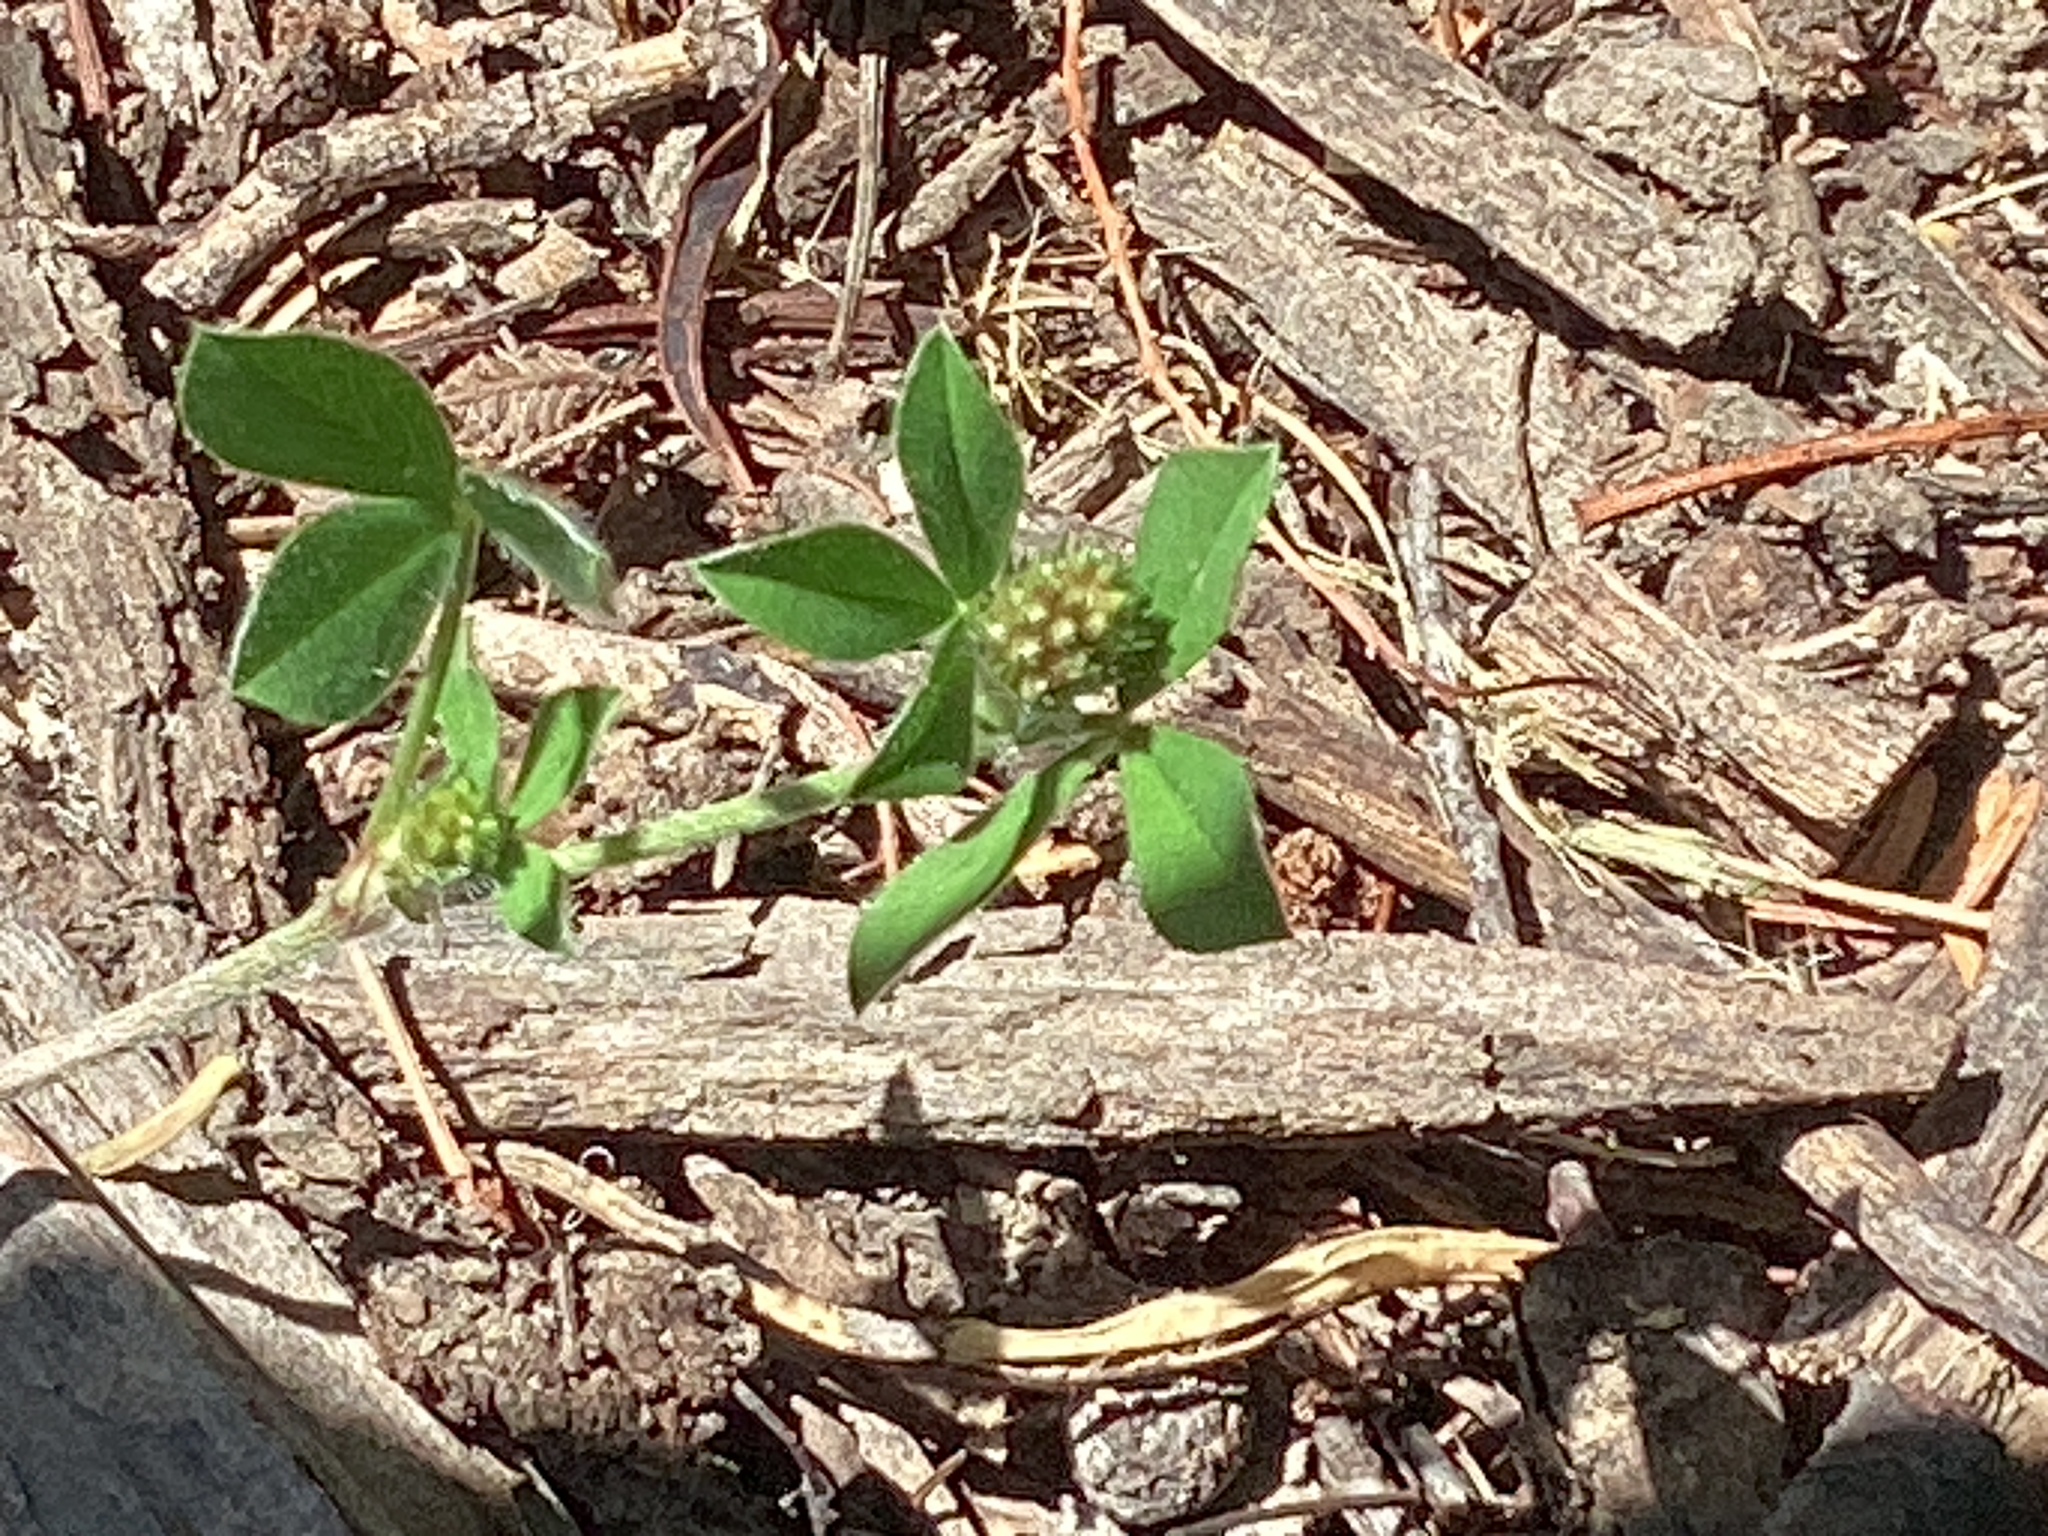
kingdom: Plantae
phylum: Tracheophyta
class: Magnoliopsida
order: Fabales
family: Fabaceae
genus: Trifolium
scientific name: Trifolium striatum
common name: Knotted clover
